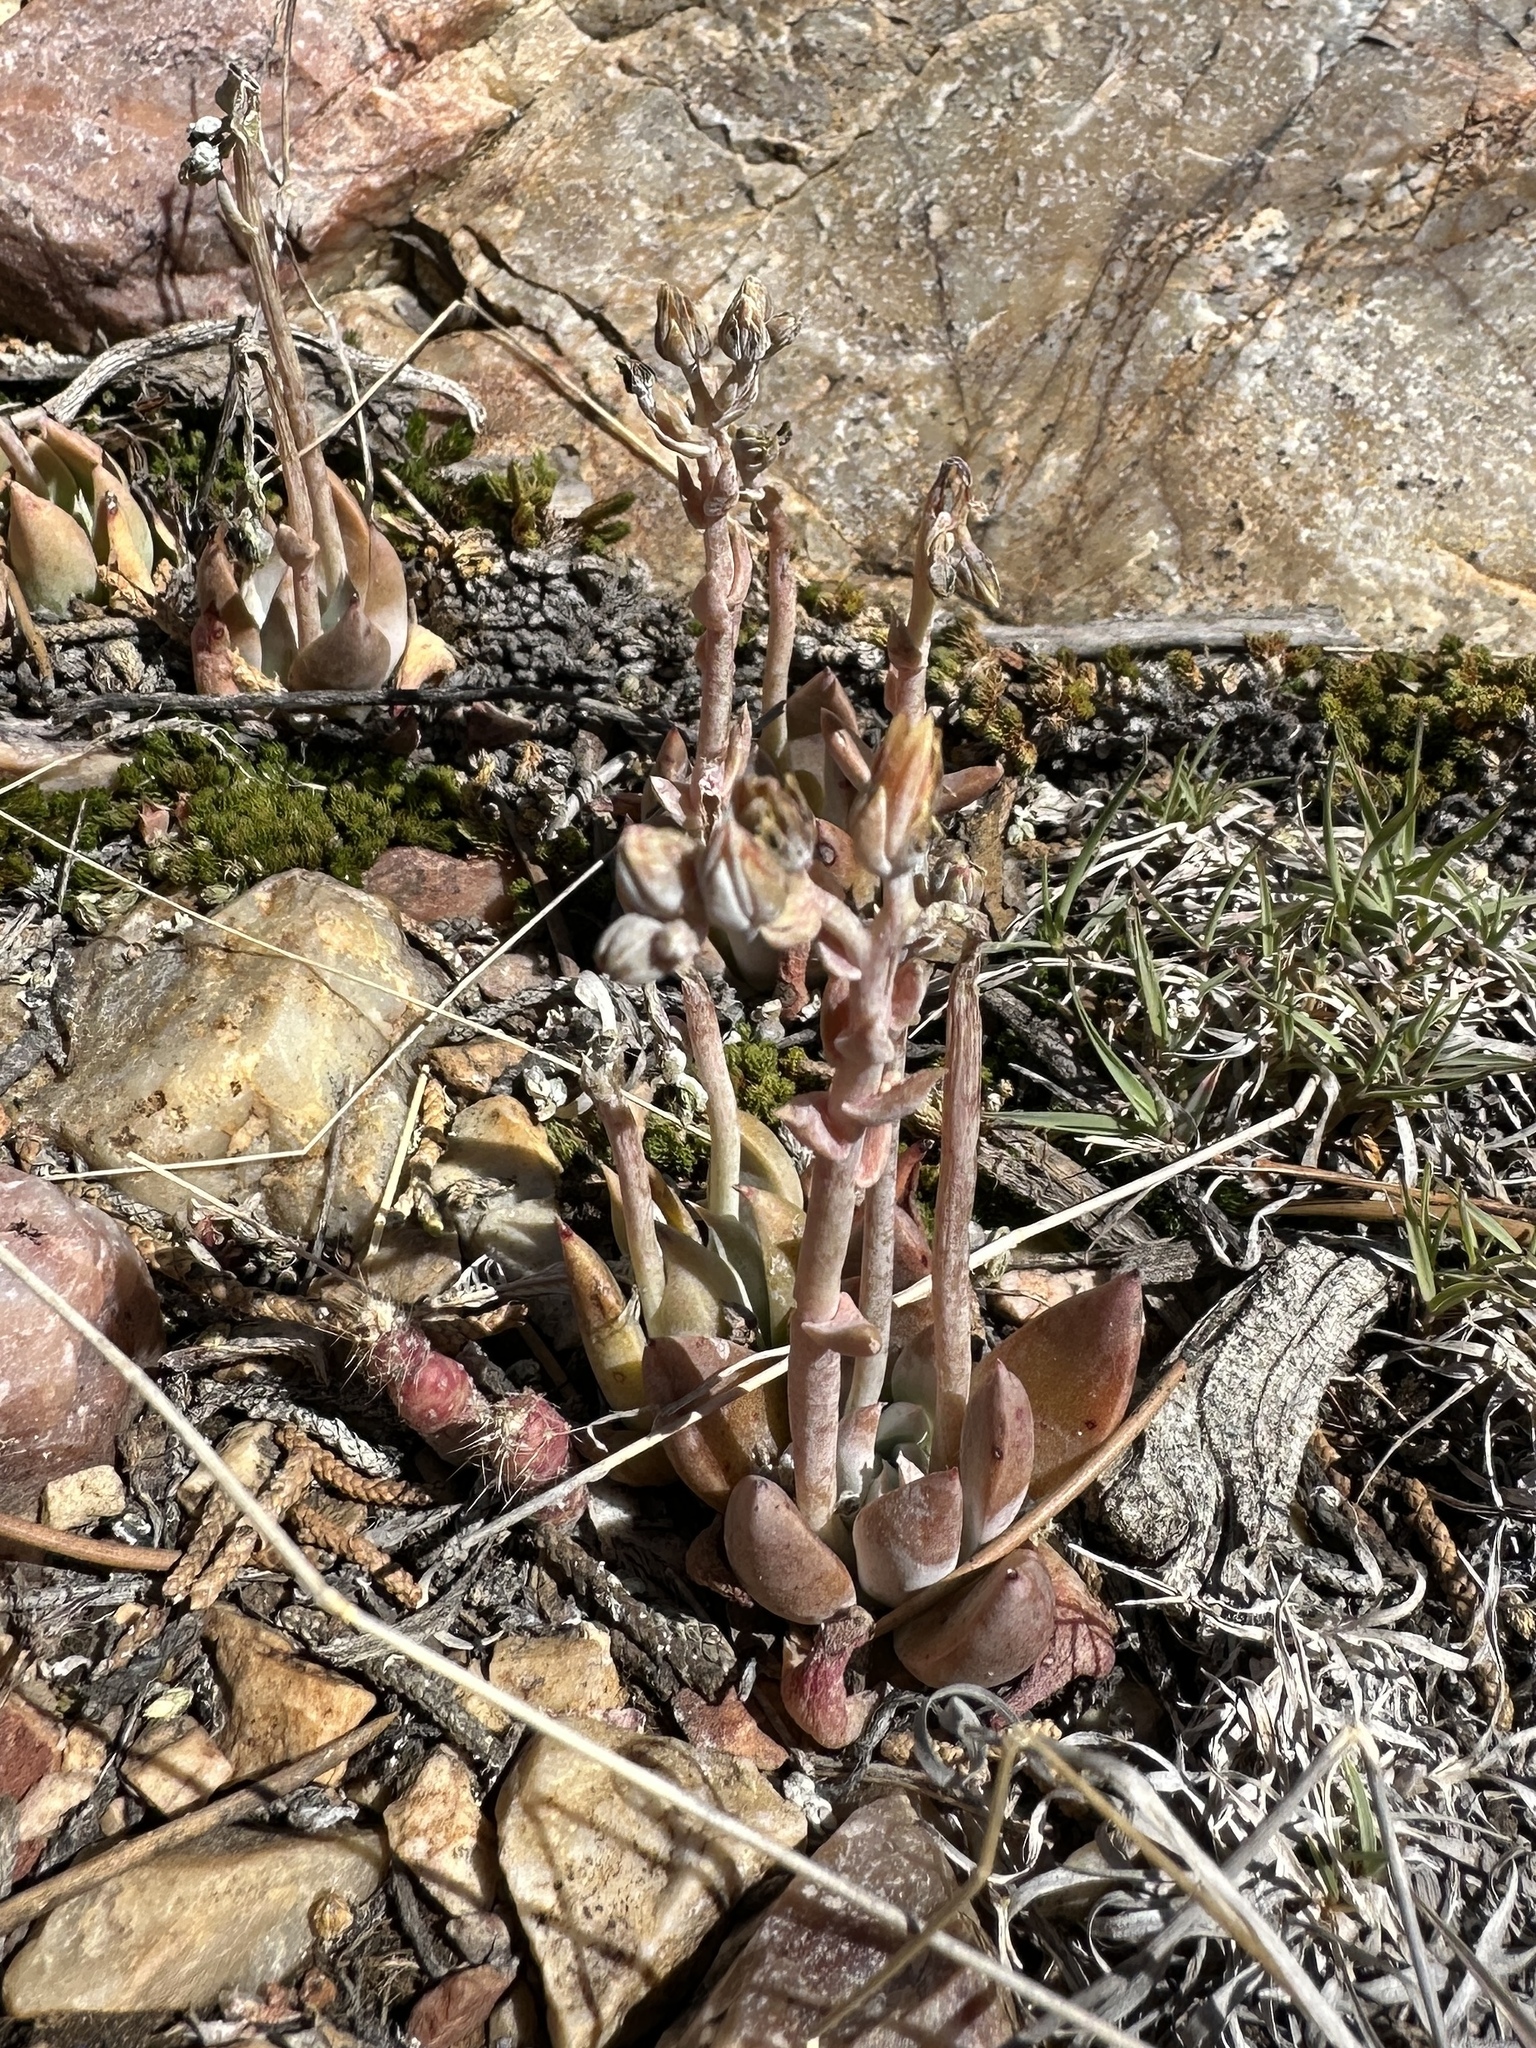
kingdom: Plantae
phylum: Tracheophyta
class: Magnoliopsida
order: Saxifragales
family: Crassulaceae
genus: Dudleya
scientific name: Dudleya abramsii
